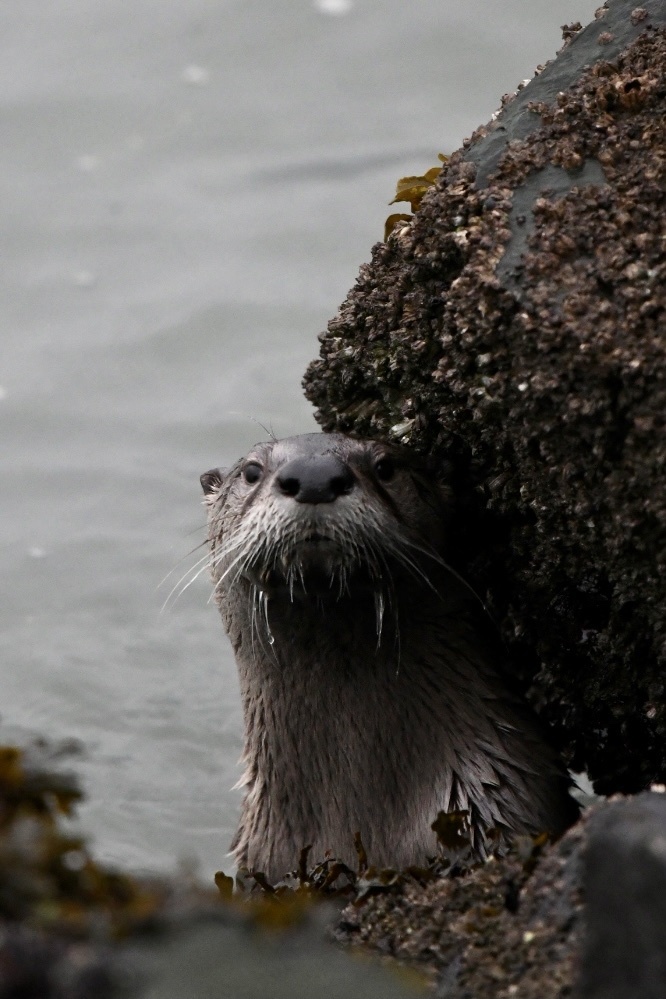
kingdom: Animalia
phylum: Chordata
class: Mammalia
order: Carnivora
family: Mustelidae
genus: Lontra
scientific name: Lontra canadensis
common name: North american river otter
